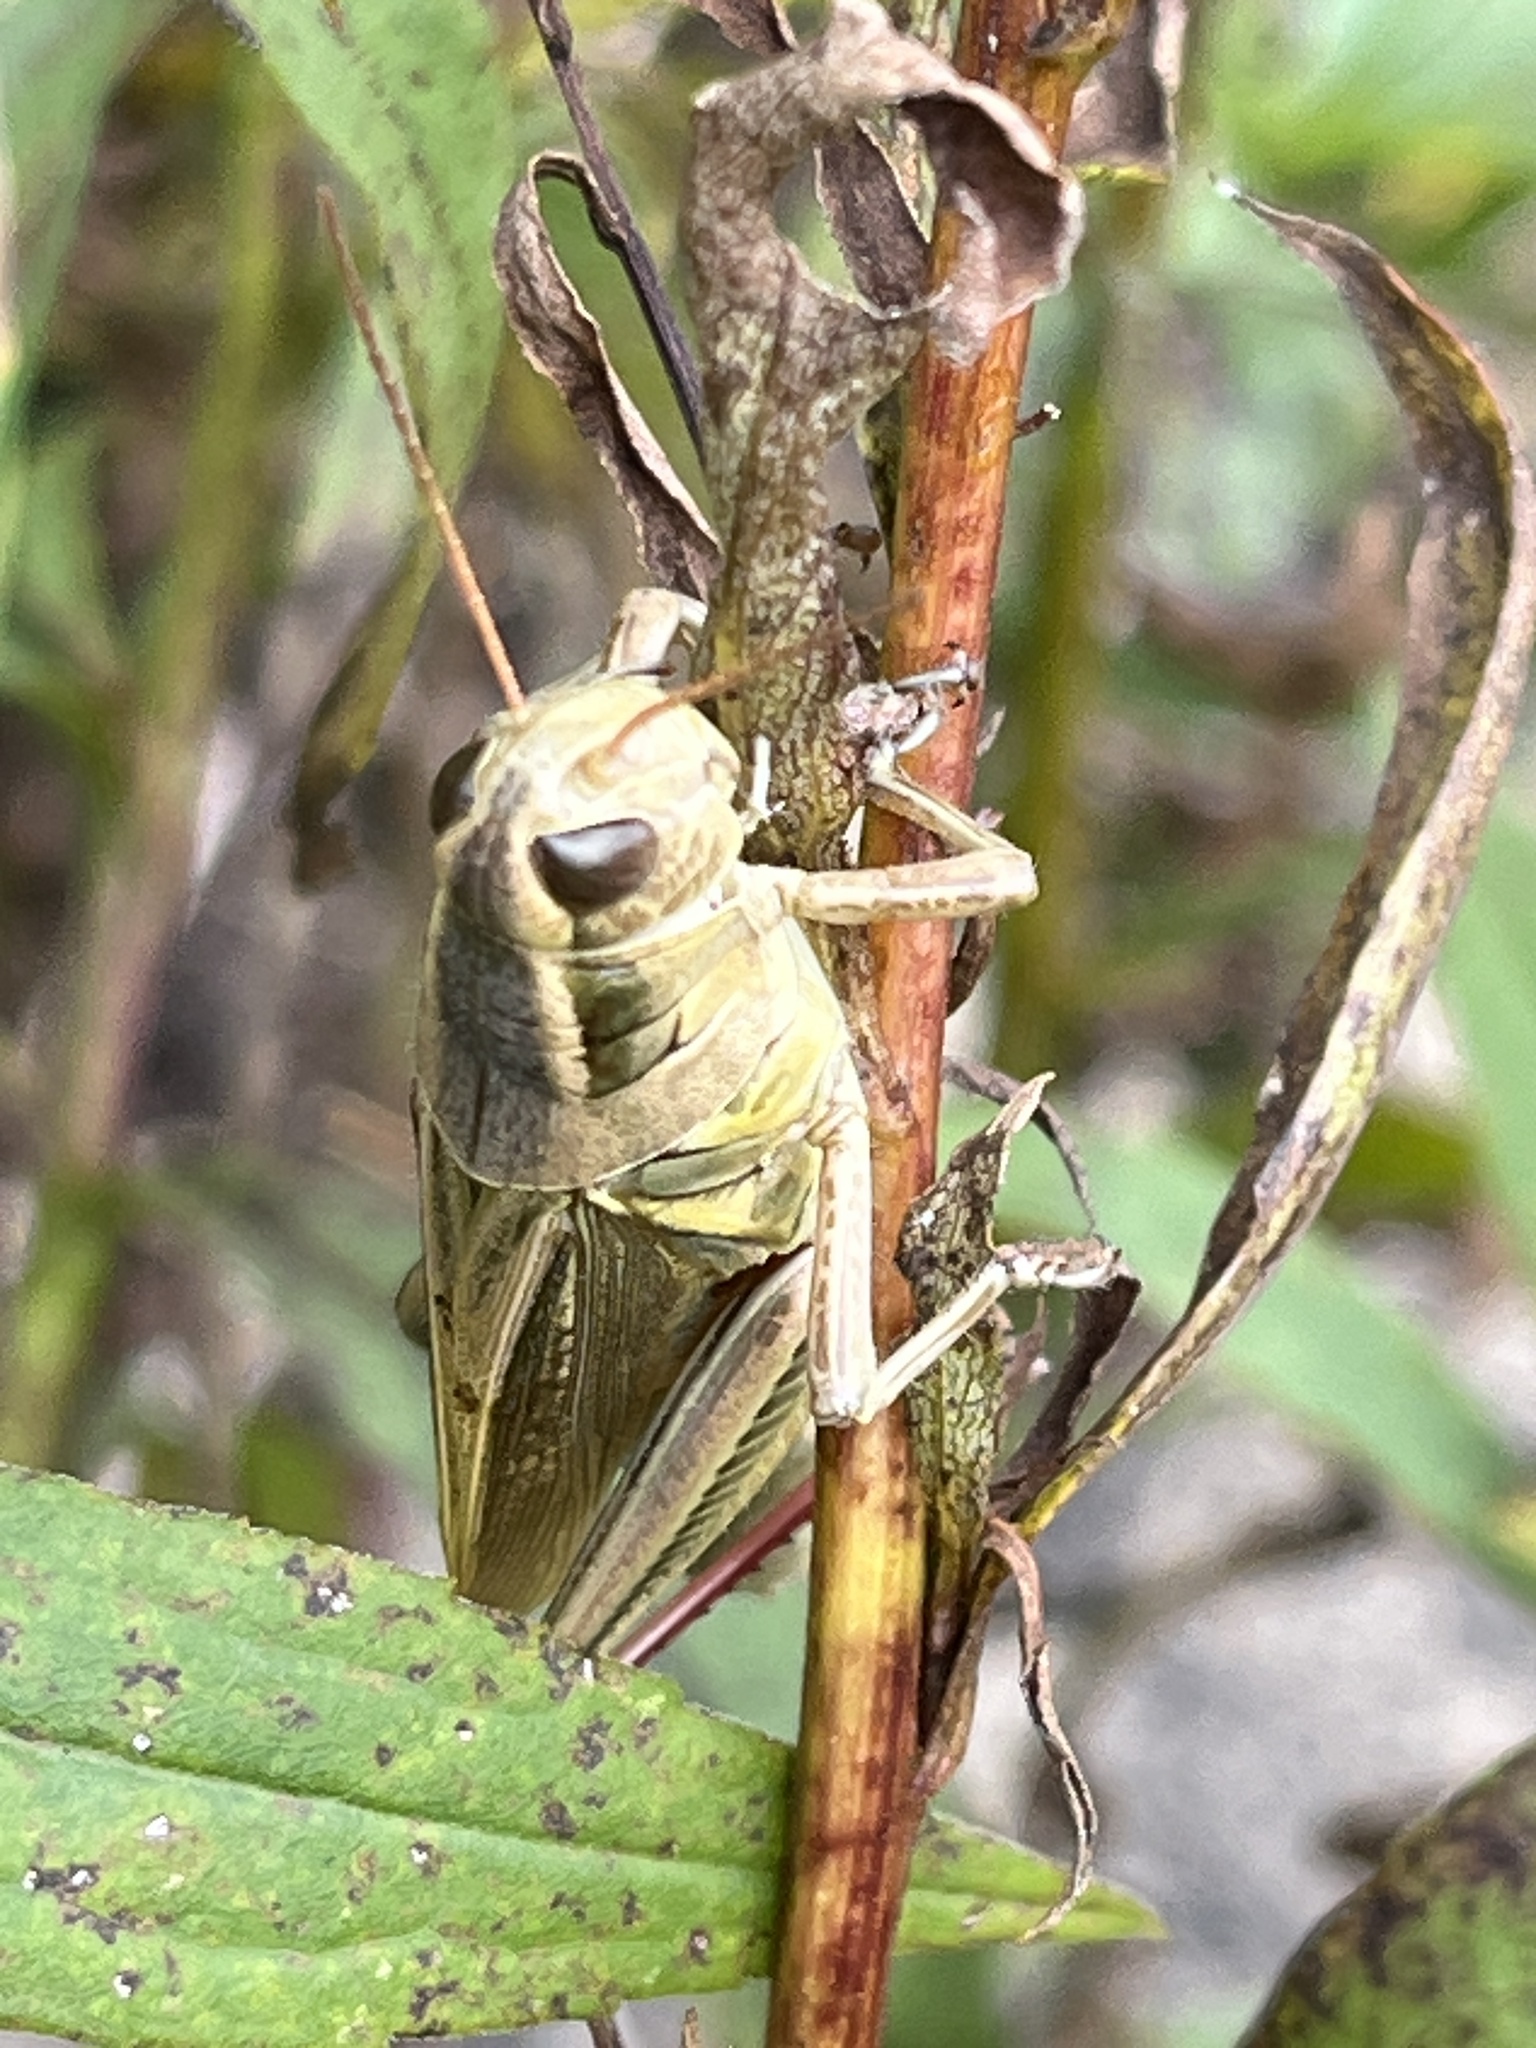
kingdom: Animalia
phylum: Arthropoda
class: Insecta
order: Orthoptera
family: Acrididae
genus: Melanoplus
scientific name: Melanoplus bivittatus
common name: Two-striped grasshopper
